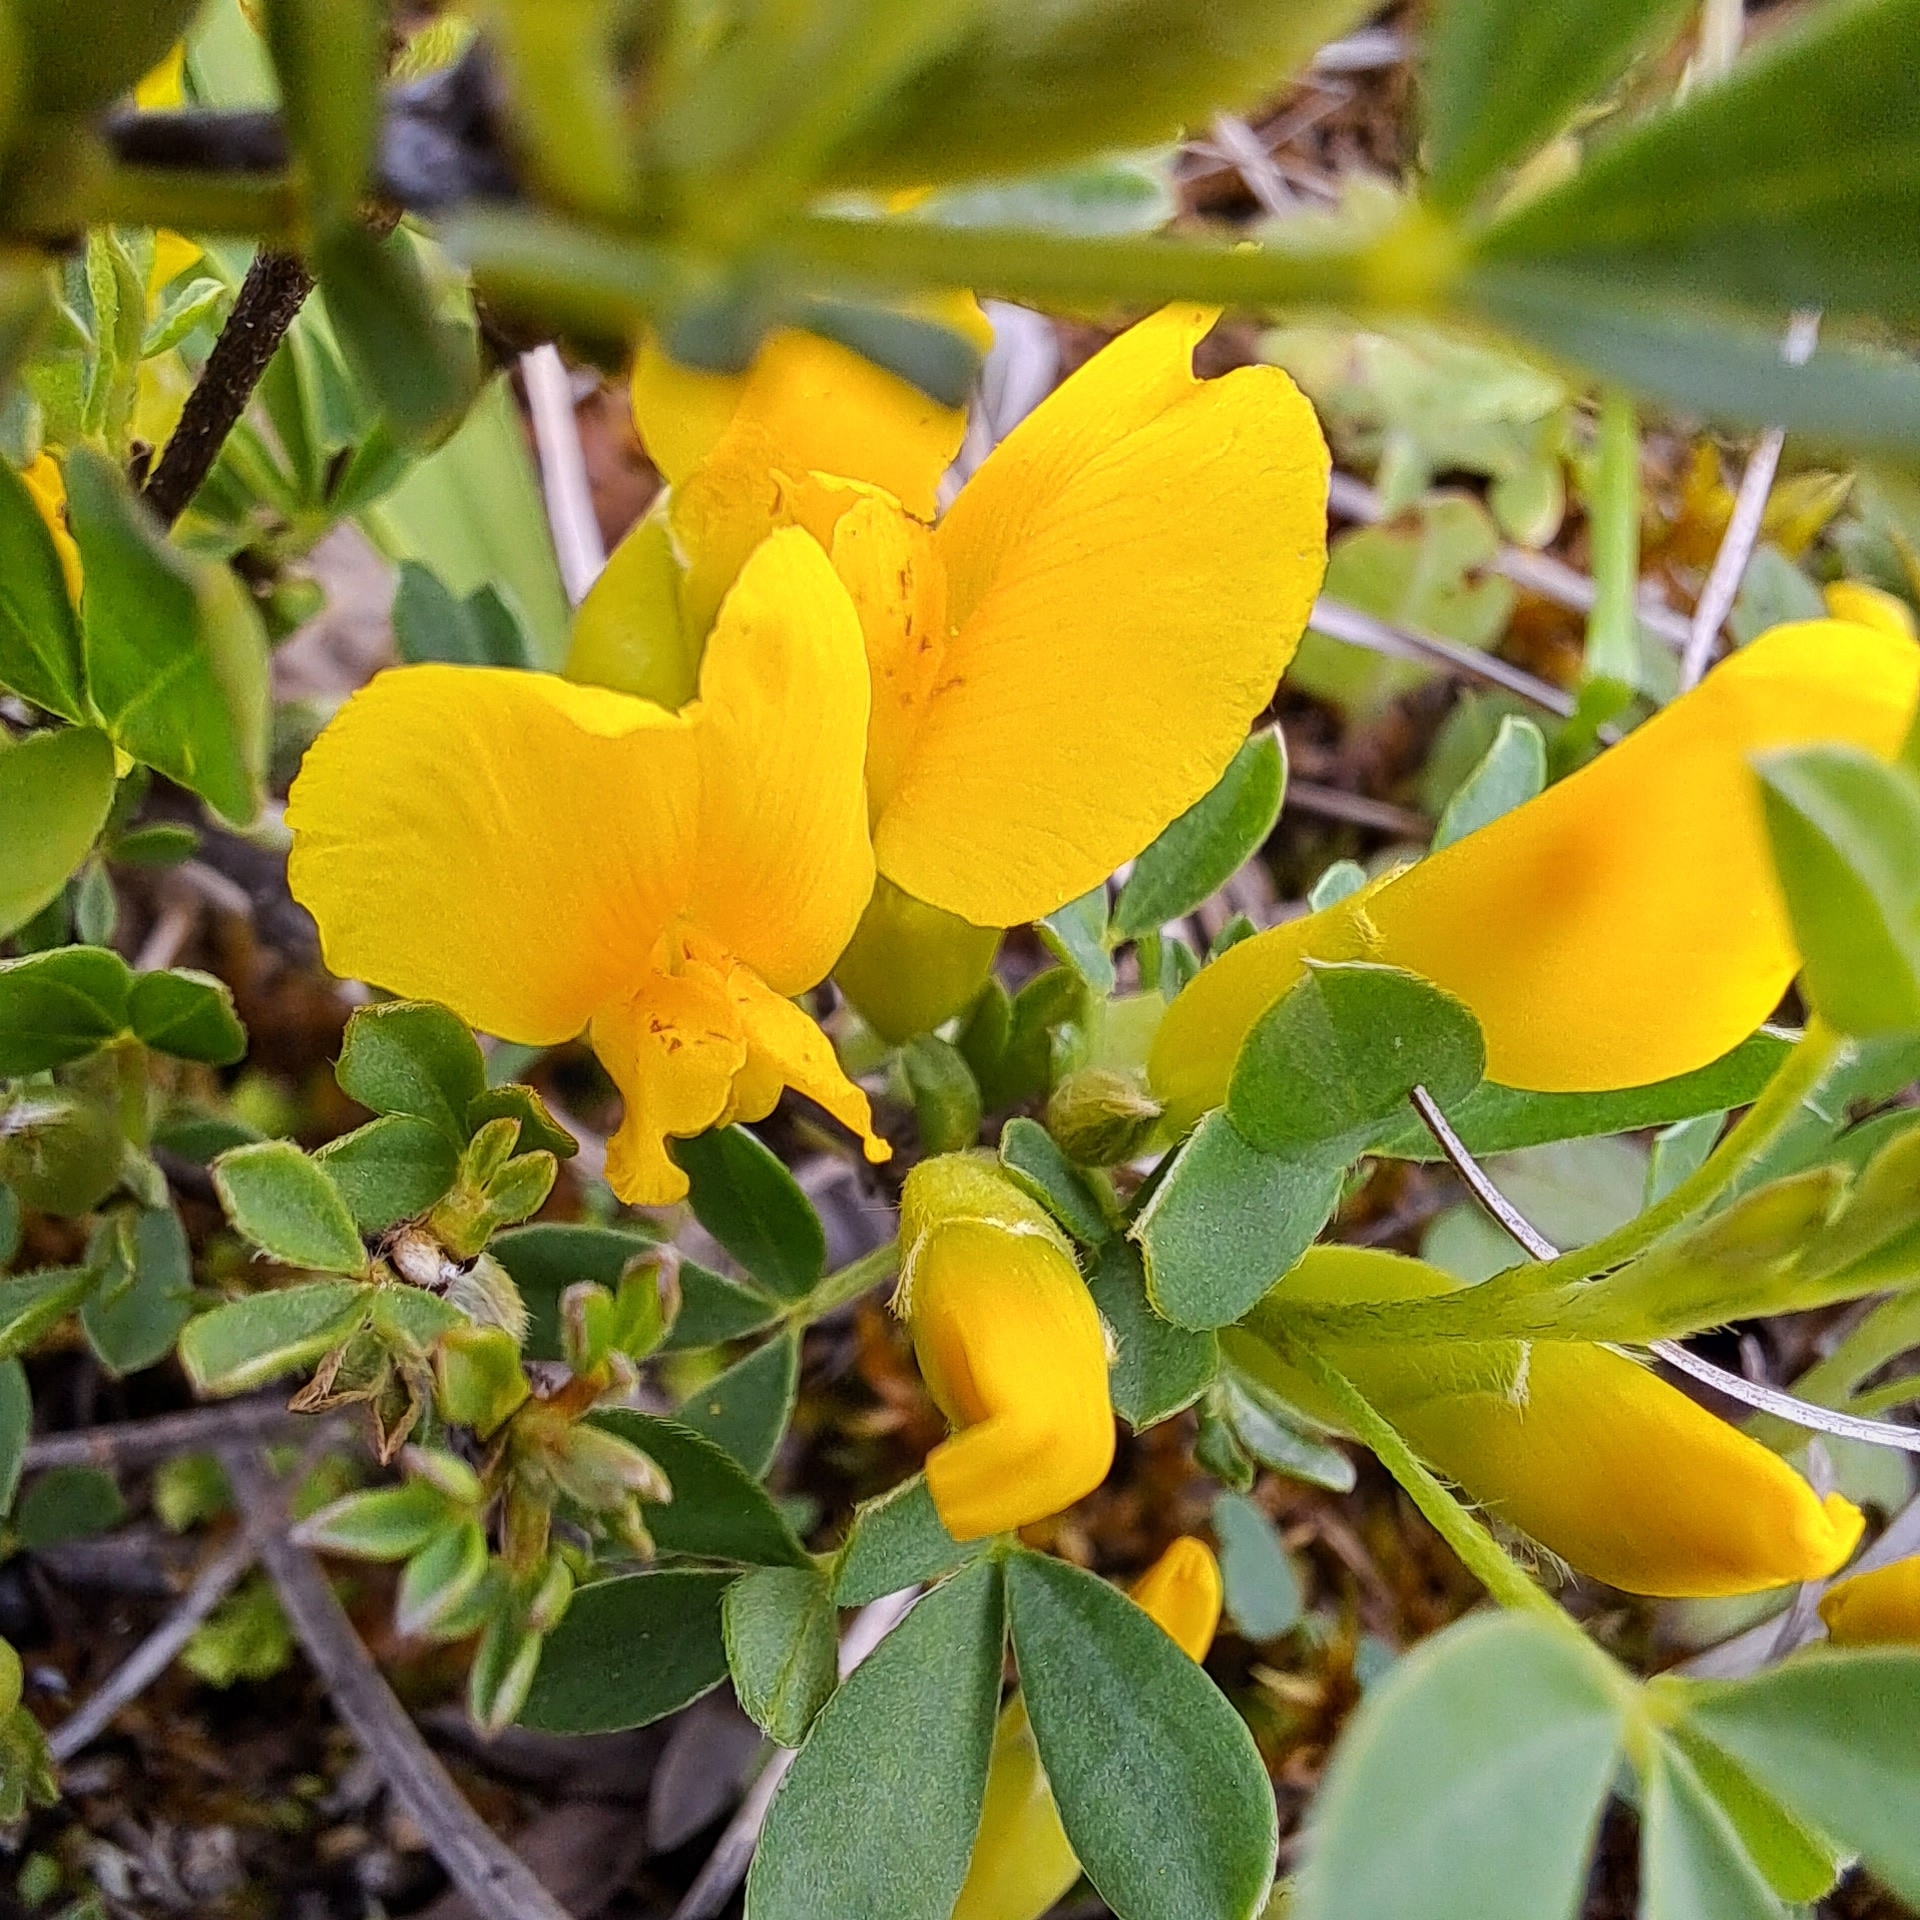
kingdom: Plantae
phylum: Tracheophyta
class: Magnoliopsida
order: Fabales
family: Fabaceae
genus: Chamaecytisus
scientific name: Chamaecytisus ratisbonensis
